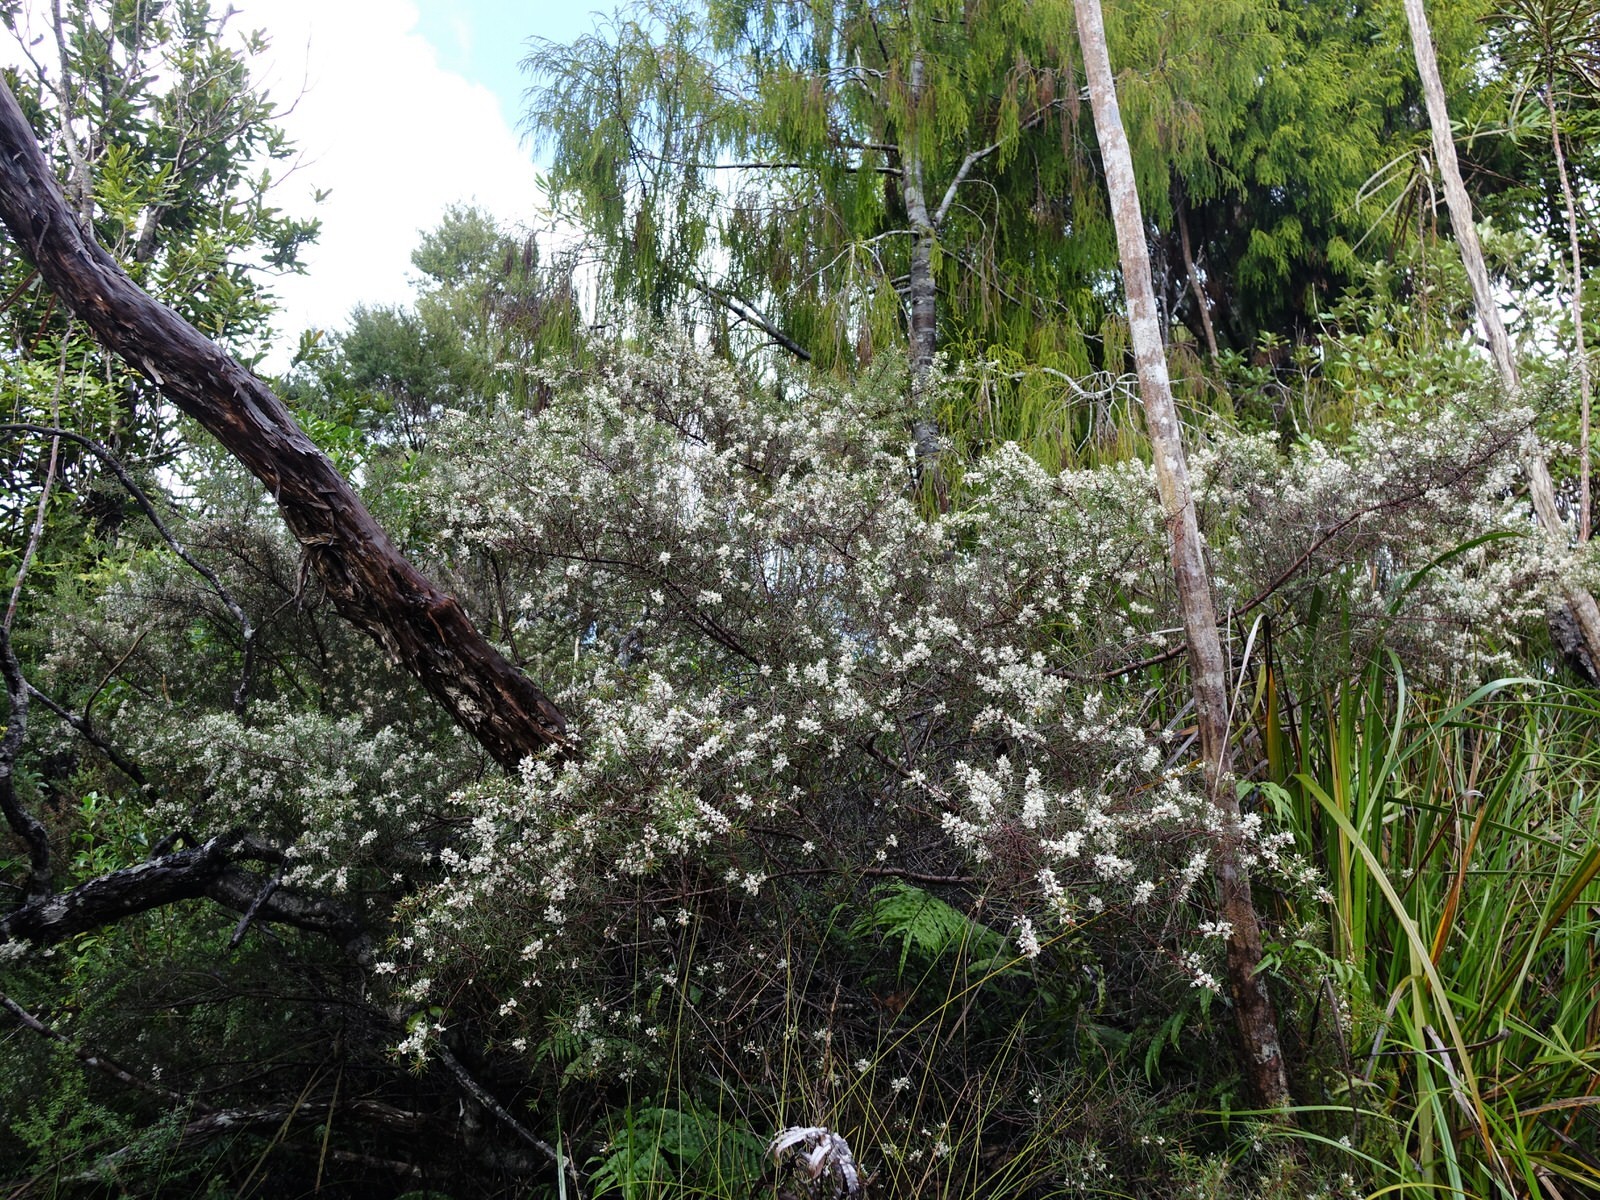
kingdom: Plantae
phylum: Tracheophyta
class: Magnoliopsida
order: Proteales
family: Proteaceae
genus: Hakea
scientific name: Hakea sericea
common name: Needle bush
